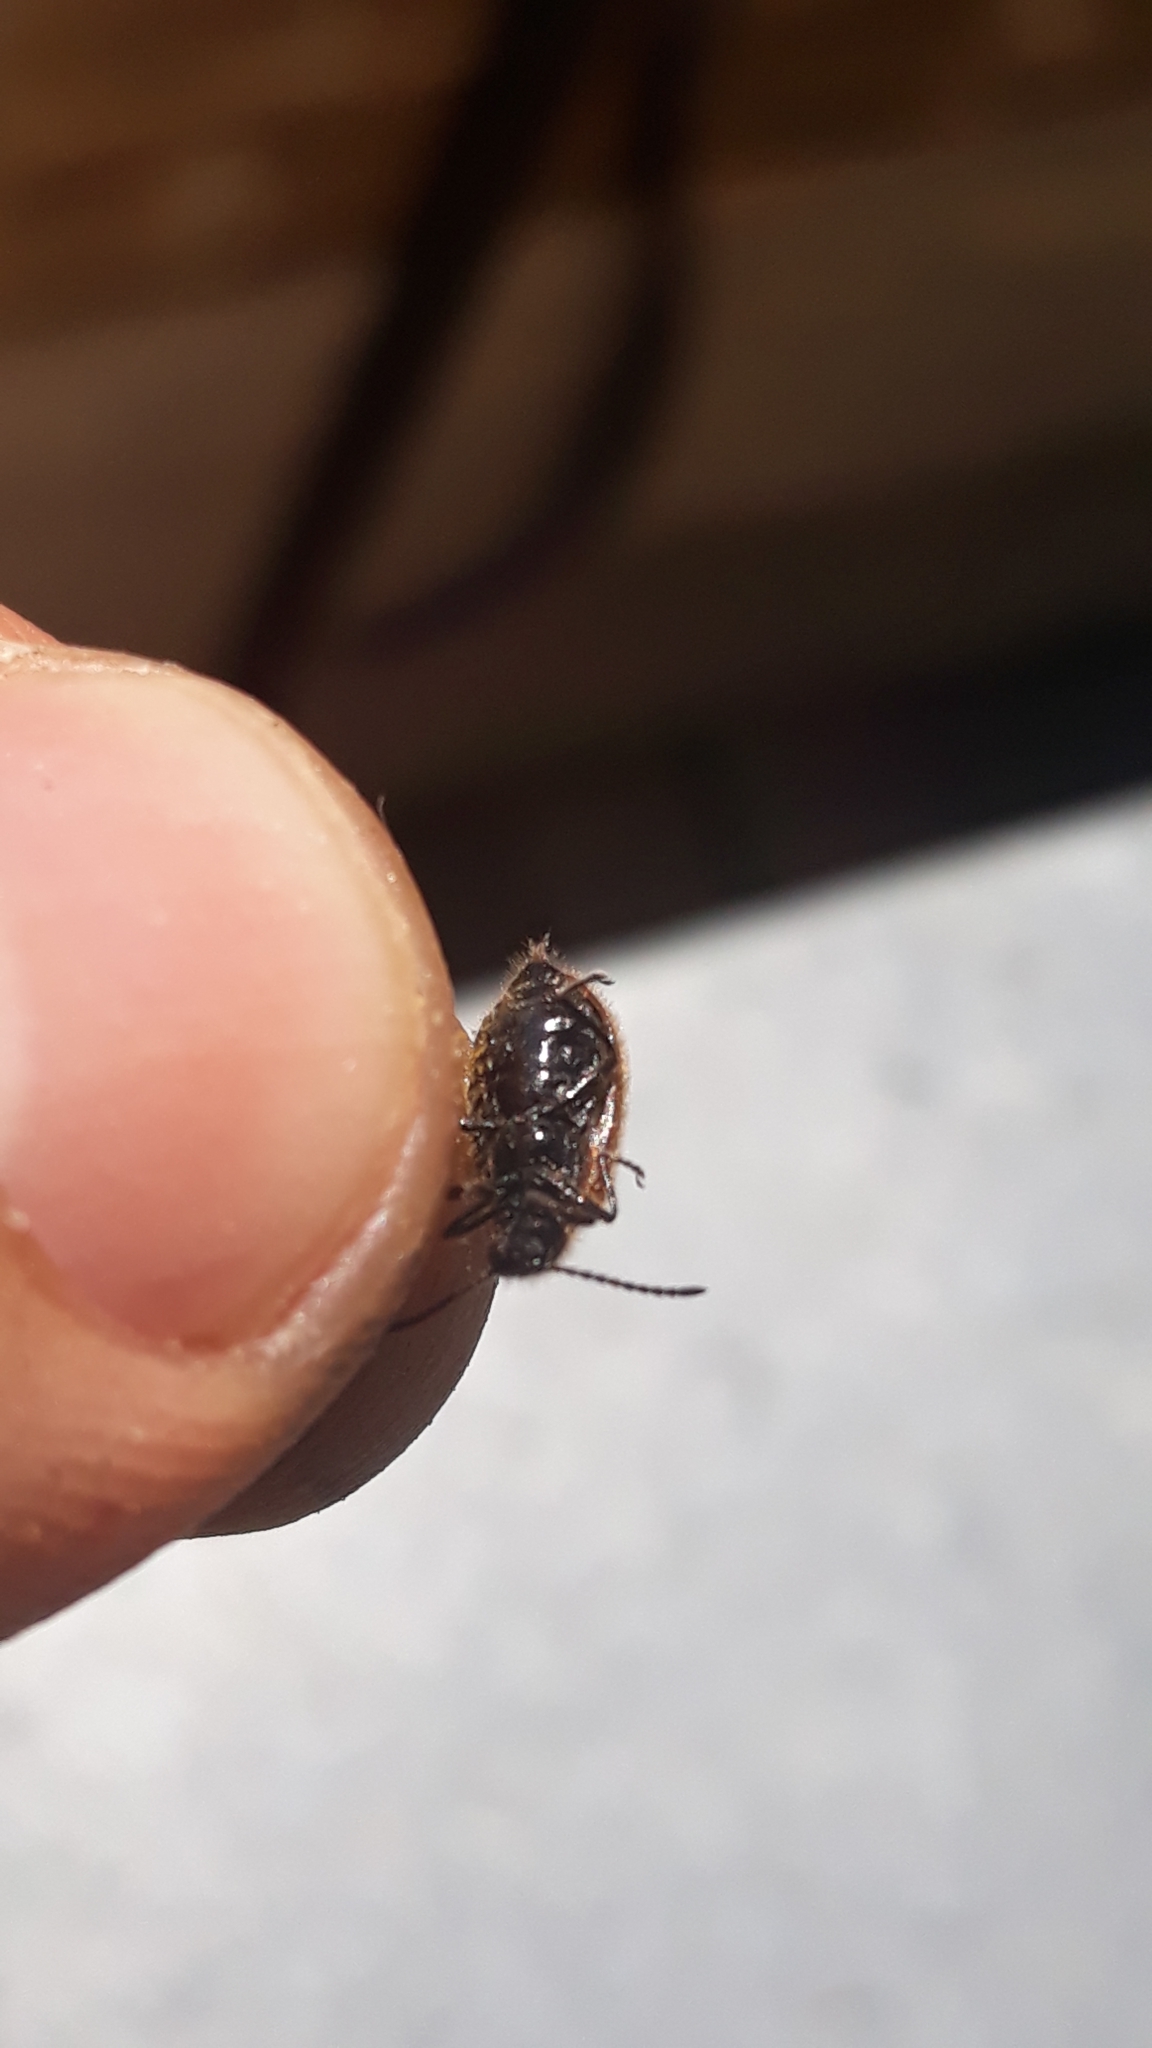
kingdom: Animalia
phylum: Arthropoda
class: Insecta
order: Coleoptera
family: Tenebrionidae
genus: Lagria
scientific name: Lagria hirta
